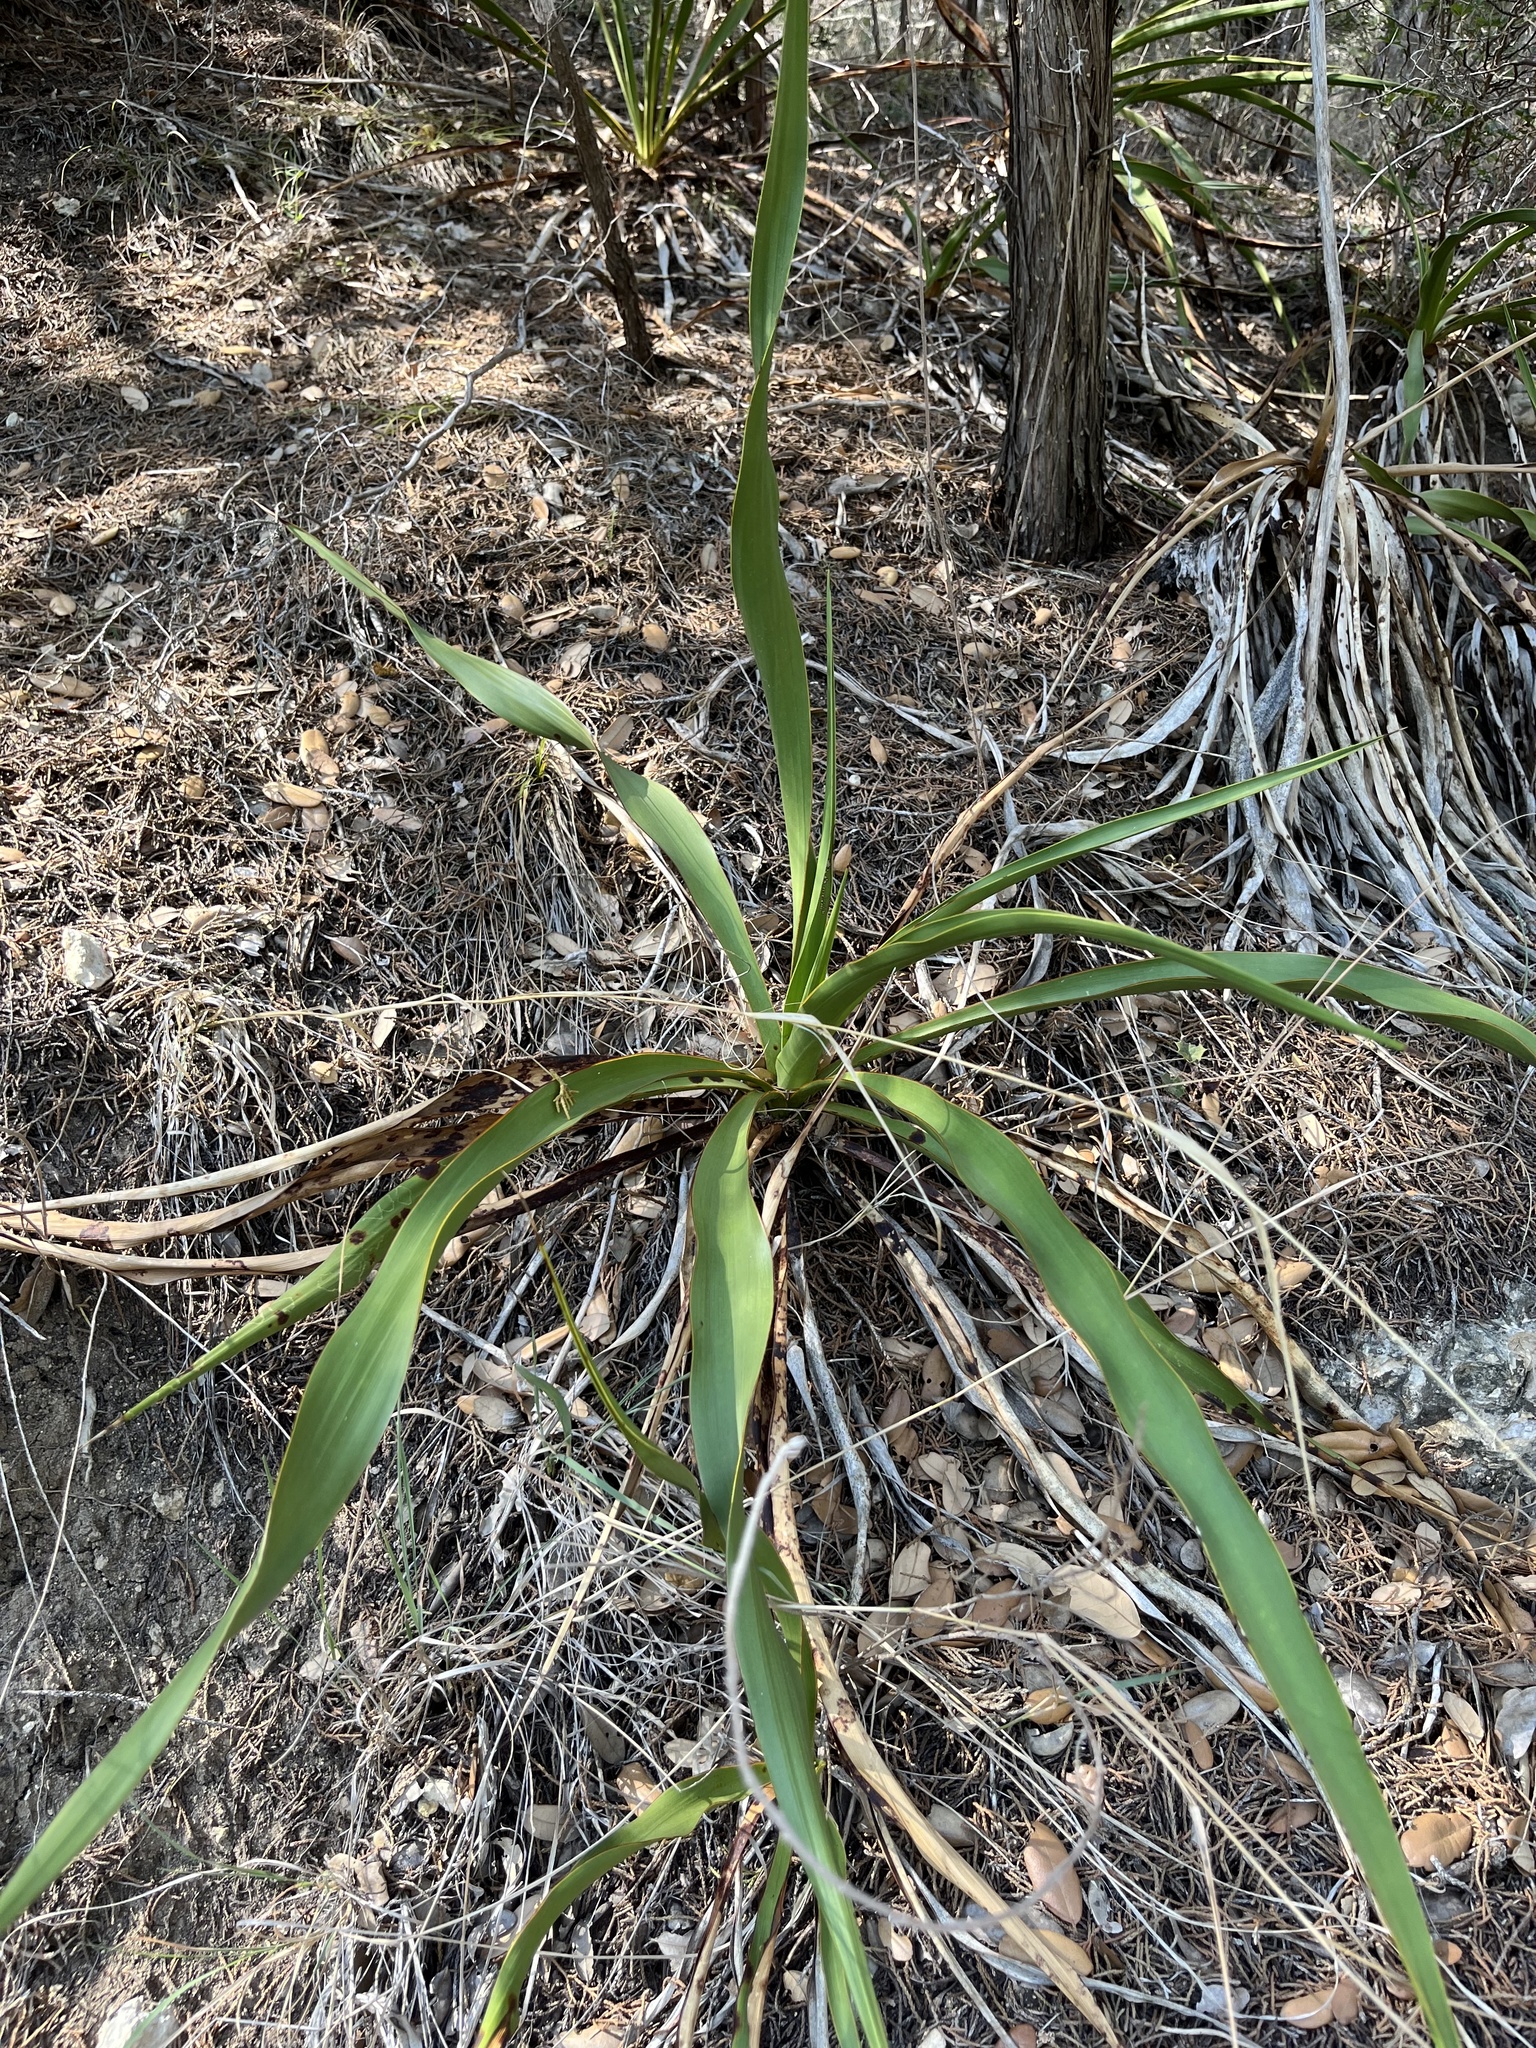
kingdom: Plantae
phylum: Tracheophyta
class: Liliopsida
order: Asparagales
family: Asparagaceae
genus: Yucca
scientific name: Yucca rupicola
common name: Twisted-leaf spanish-dagger
